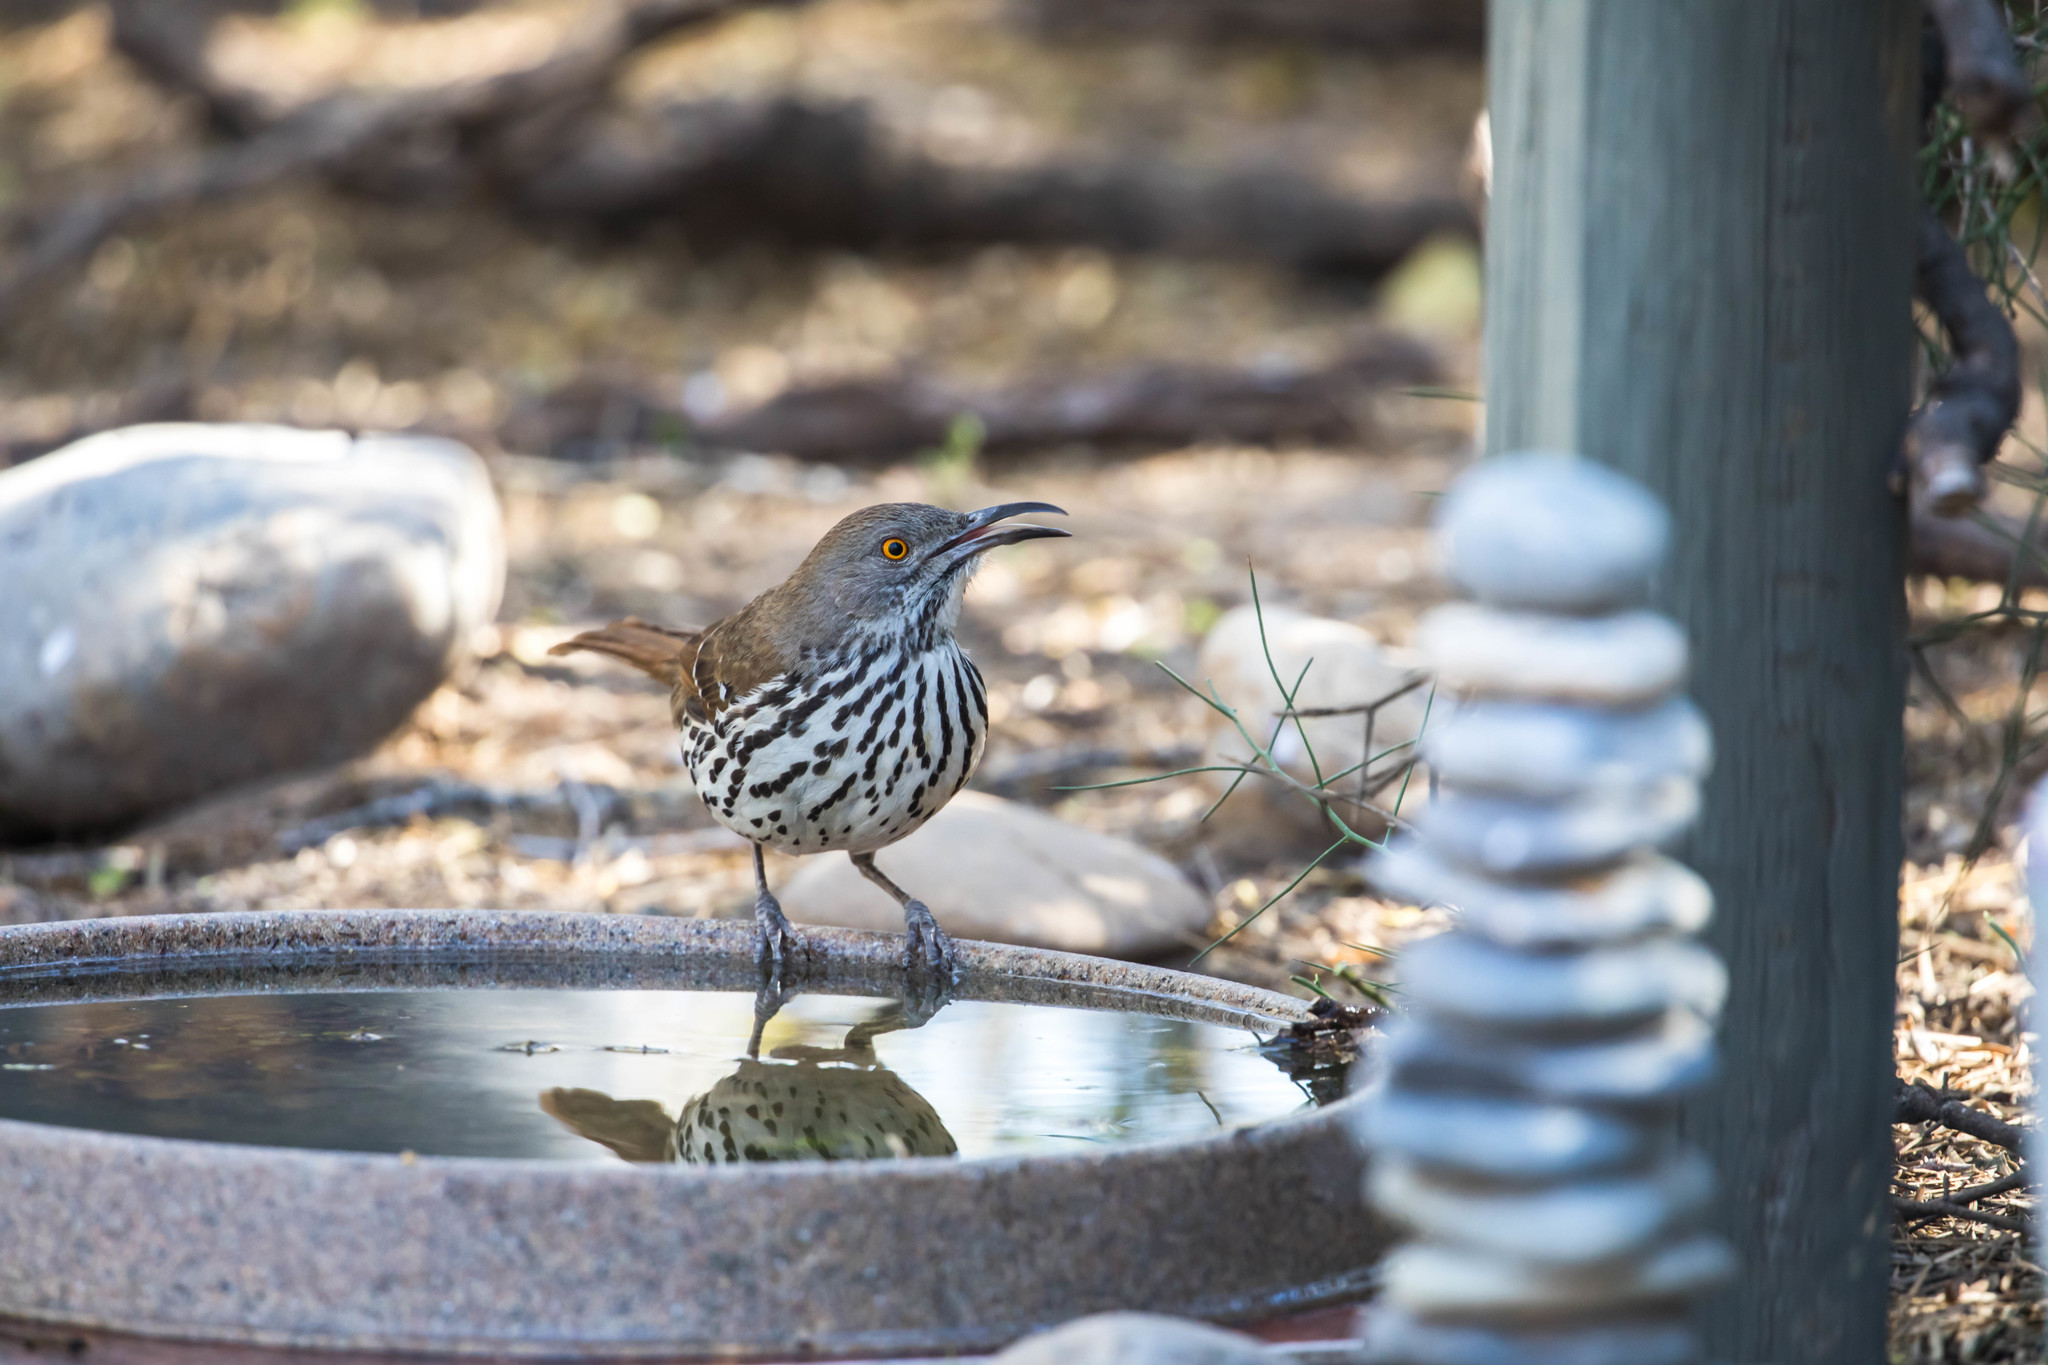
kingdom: Animalia
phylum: Chordata
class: Aves
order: Passeriformes
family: Mimidae
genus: Toxostoma
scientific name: Toxostoma longirostre
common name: Long-billed thrasher
